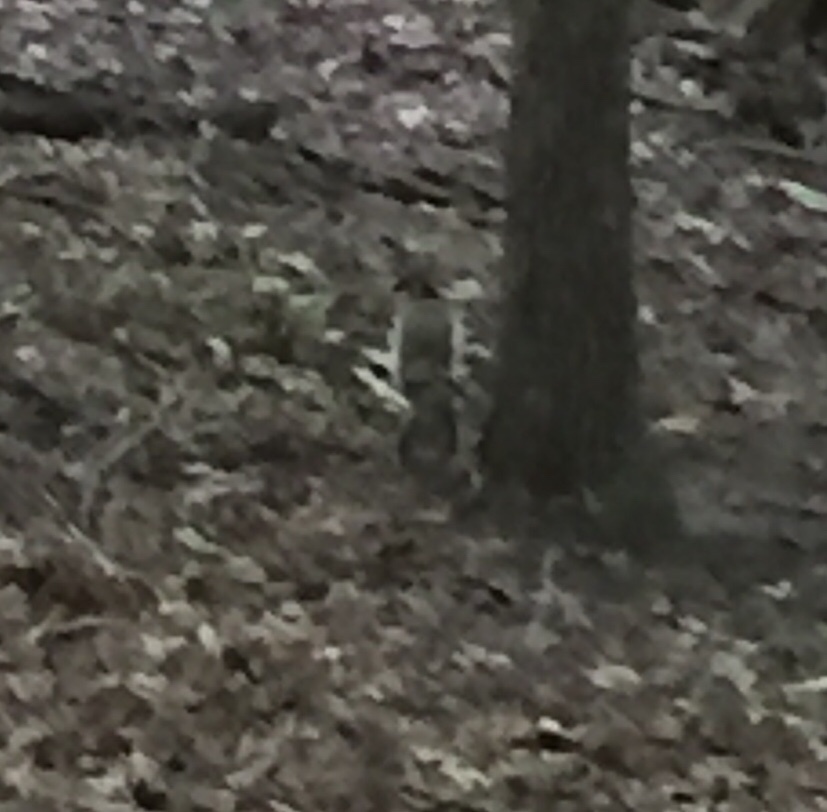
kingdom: Animalia
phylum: Chordata
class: Mammalia
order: Rodentia
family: Sciuridae
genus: Sciurus
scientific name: Sciurus carolinensis
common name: Eastern gray squirrel
